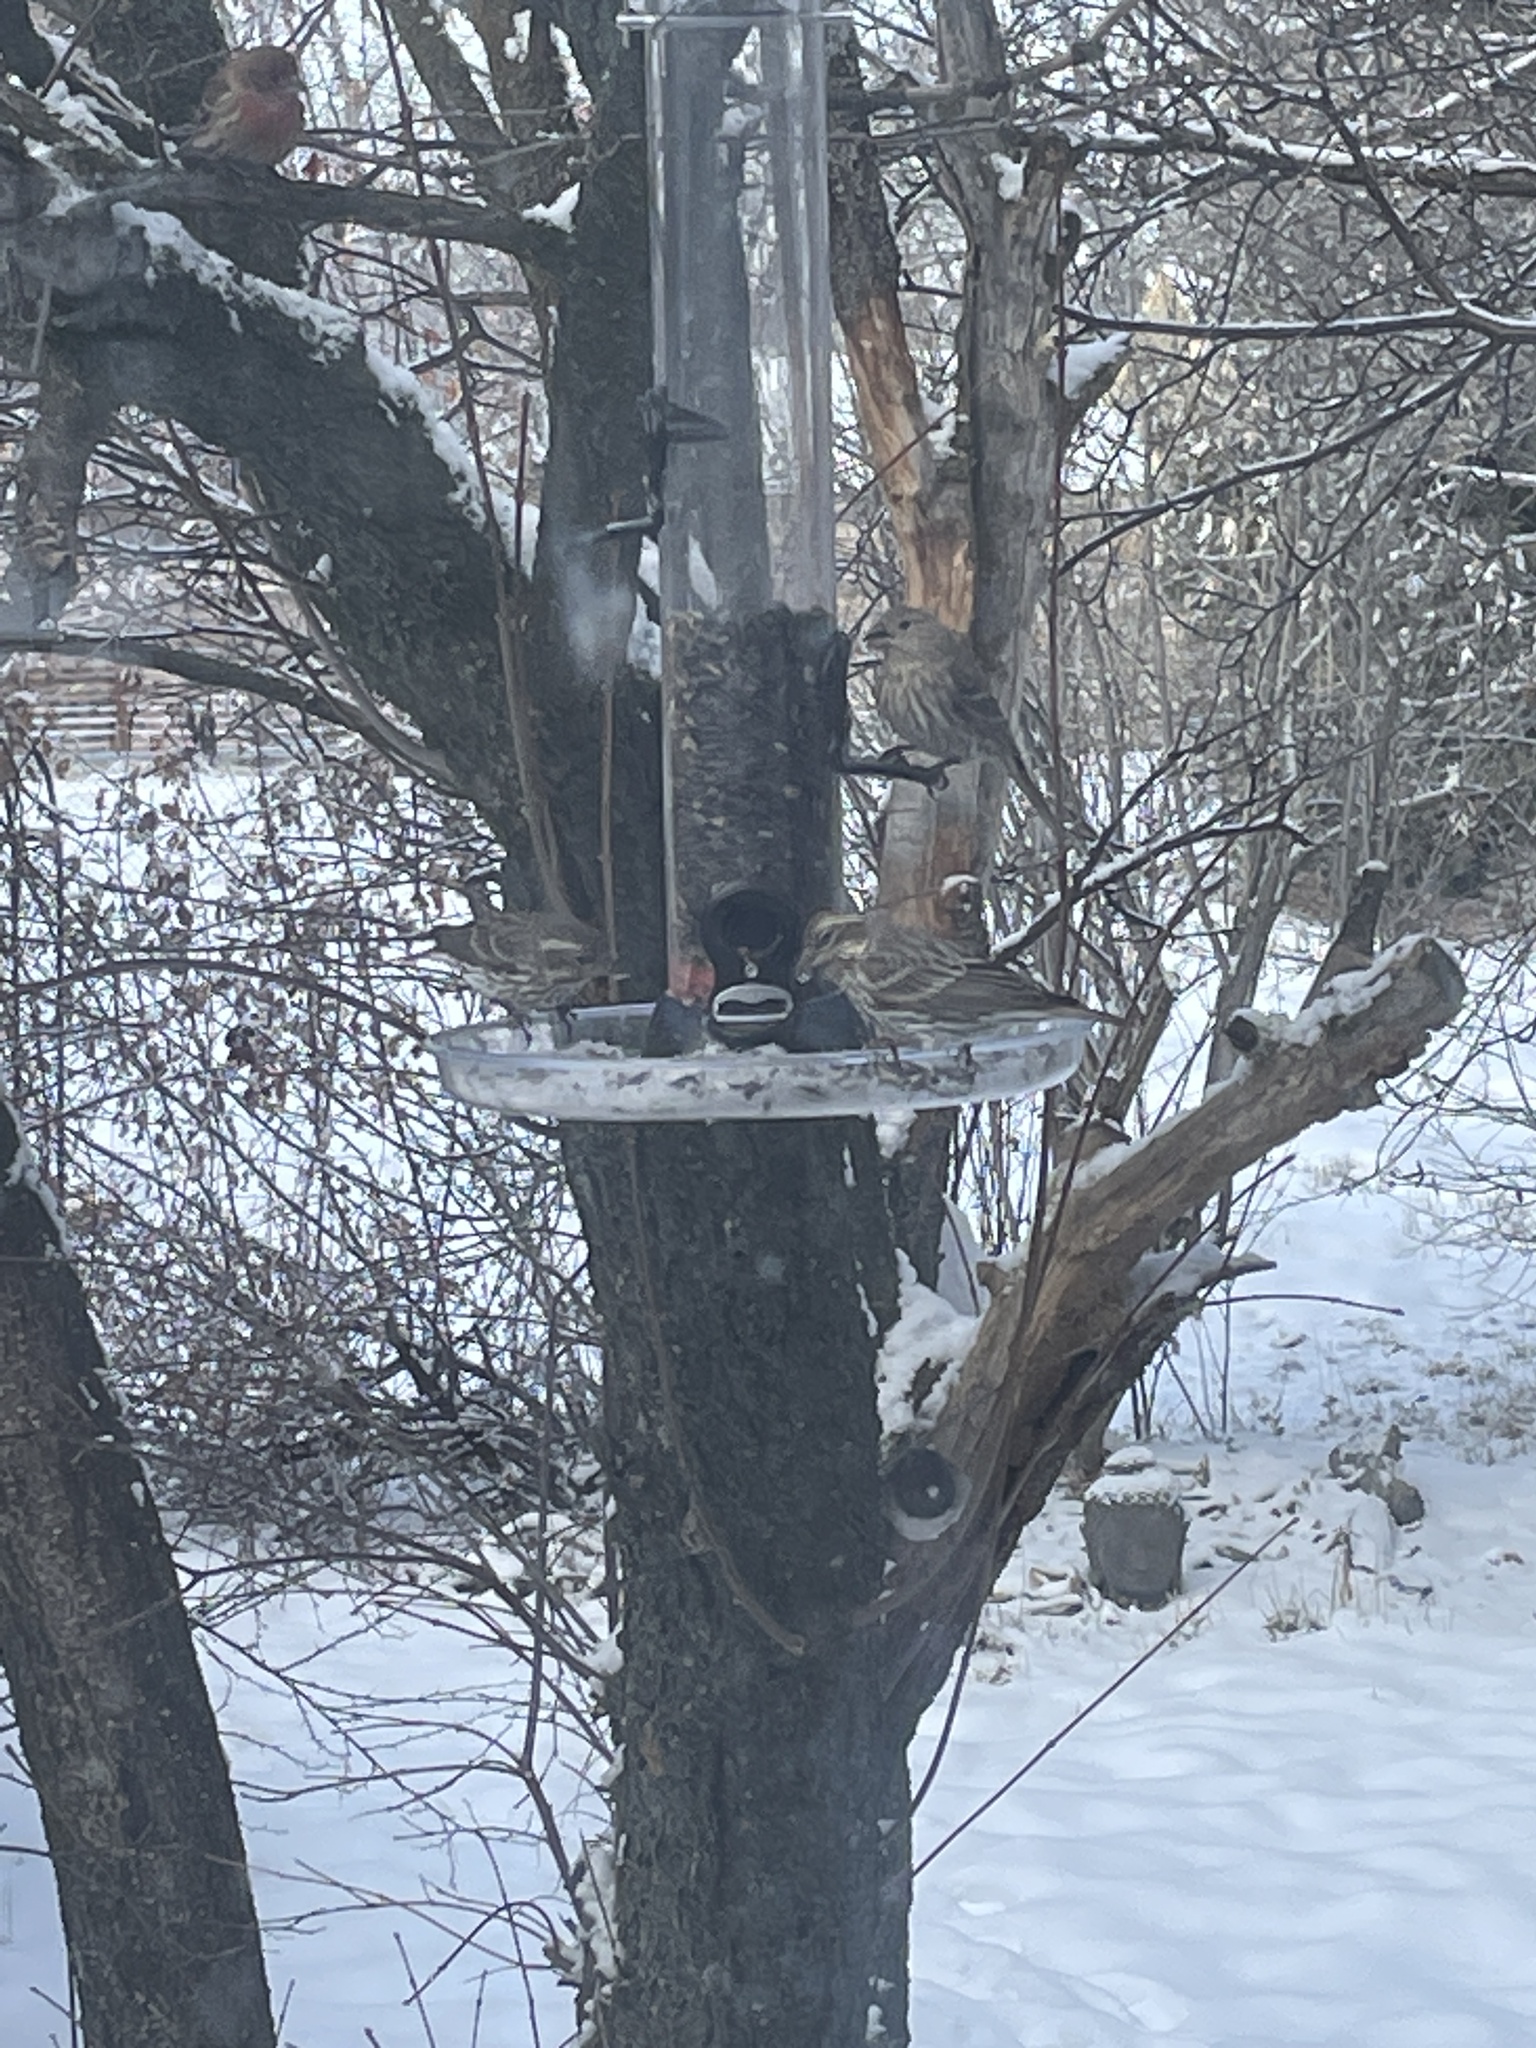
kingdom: Animalia
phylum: Chordata
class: Aves
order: Passeriformes
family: Fringillidae
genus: Haemorhous
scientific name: Haemorhous cassinii
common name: Cassin's finch
